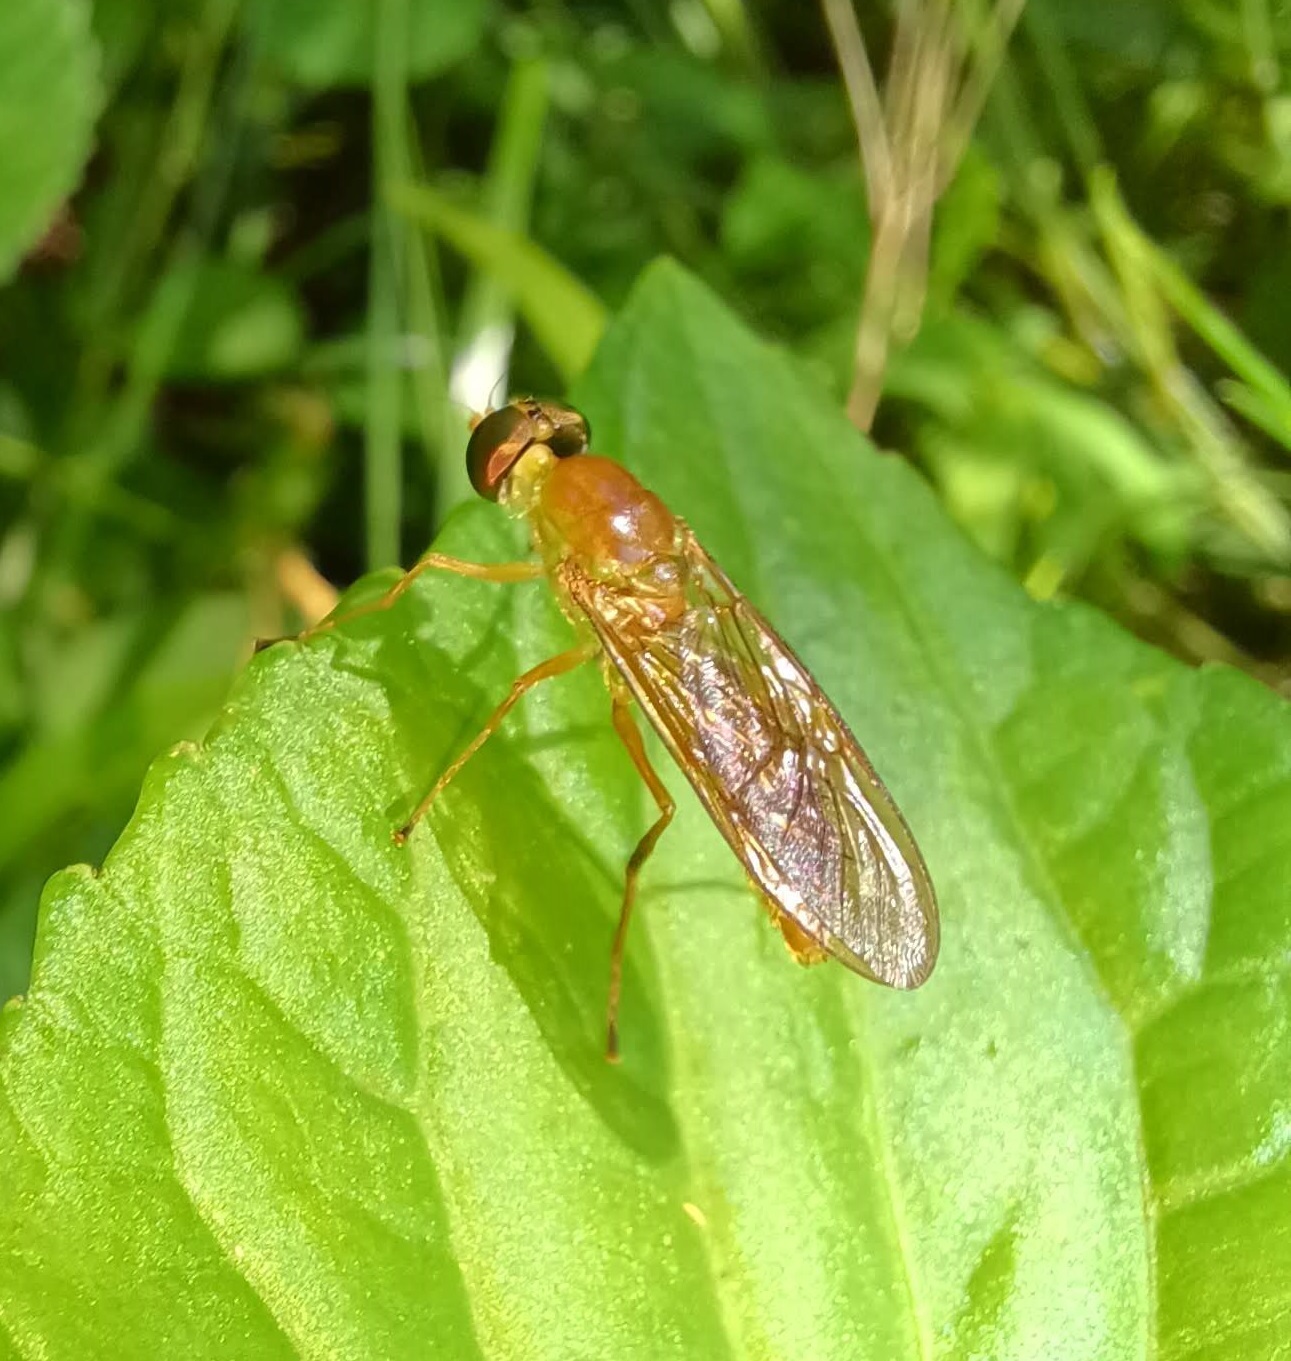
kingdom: Animalia
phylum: Arthropoda
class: Insecta
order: Diptera
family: Stratiomyidae
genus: Ptecticus
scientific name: Ptecticus trivittatus
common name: Compost fly
